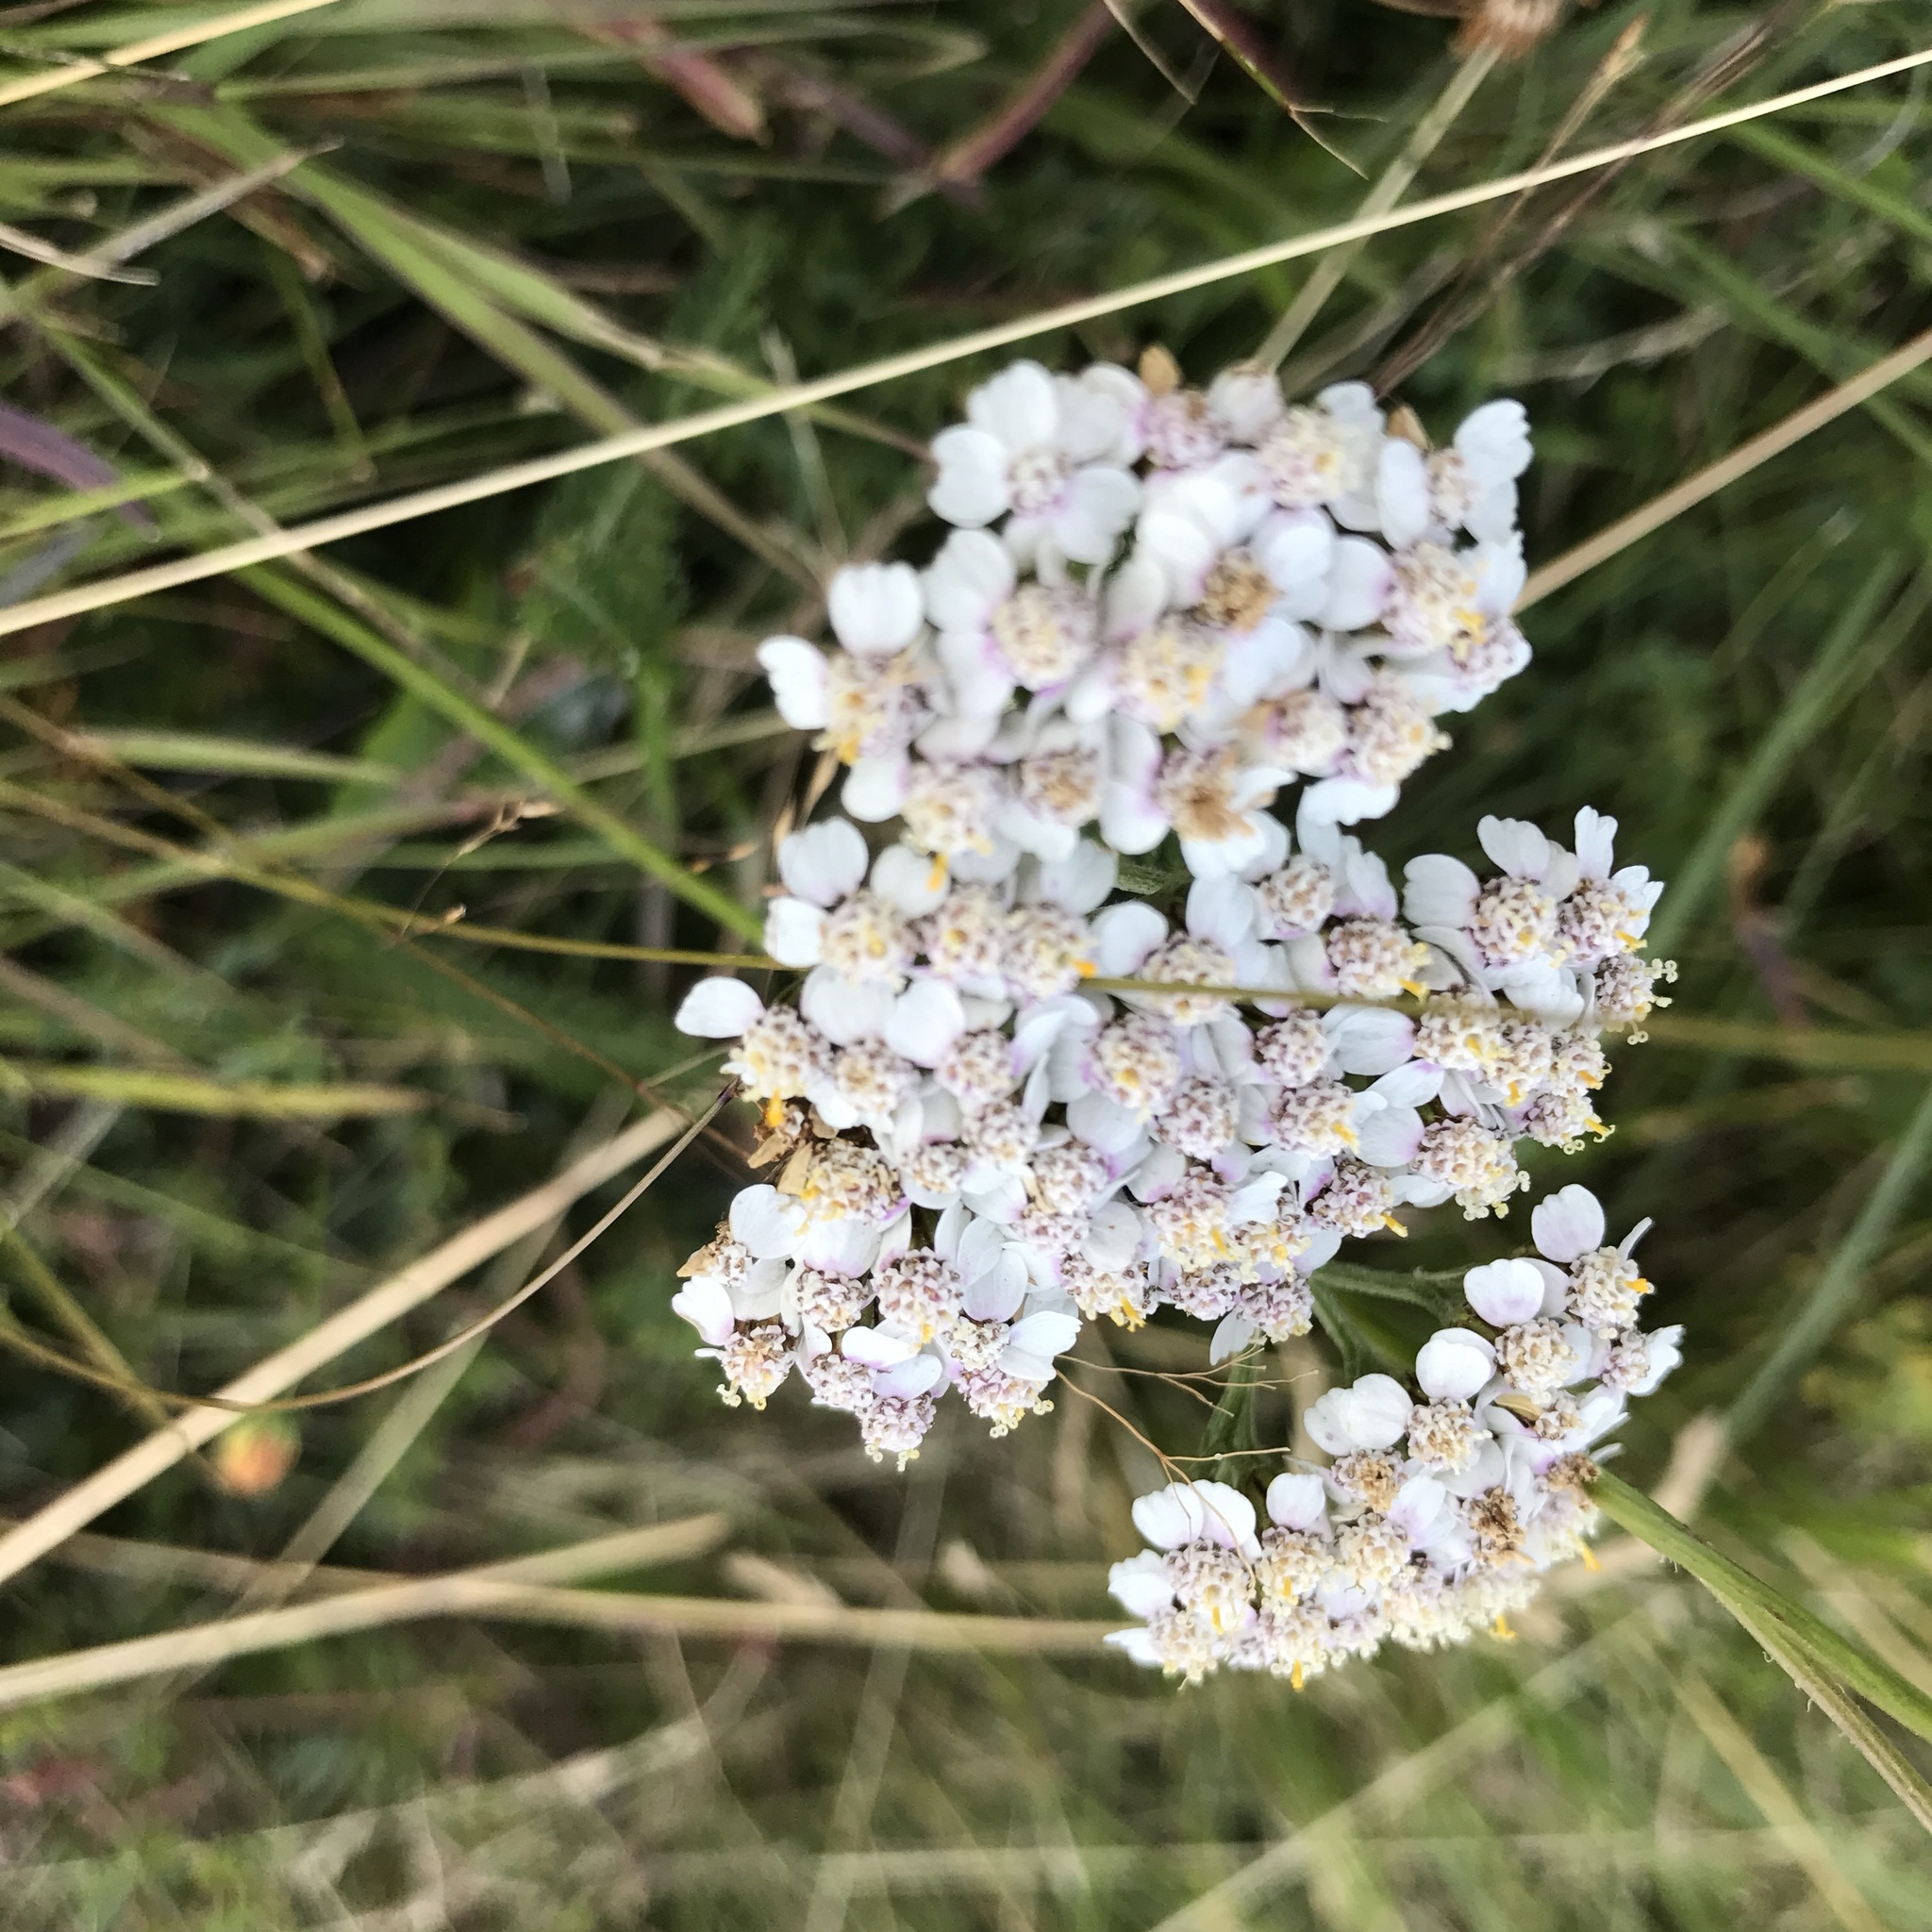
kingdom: Plantae
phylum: Tracheophyta
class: Magnoliopsida
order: Asterales
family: Asteraceae
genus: Achillea
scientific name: Achillea millefolium
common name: Yarrow
